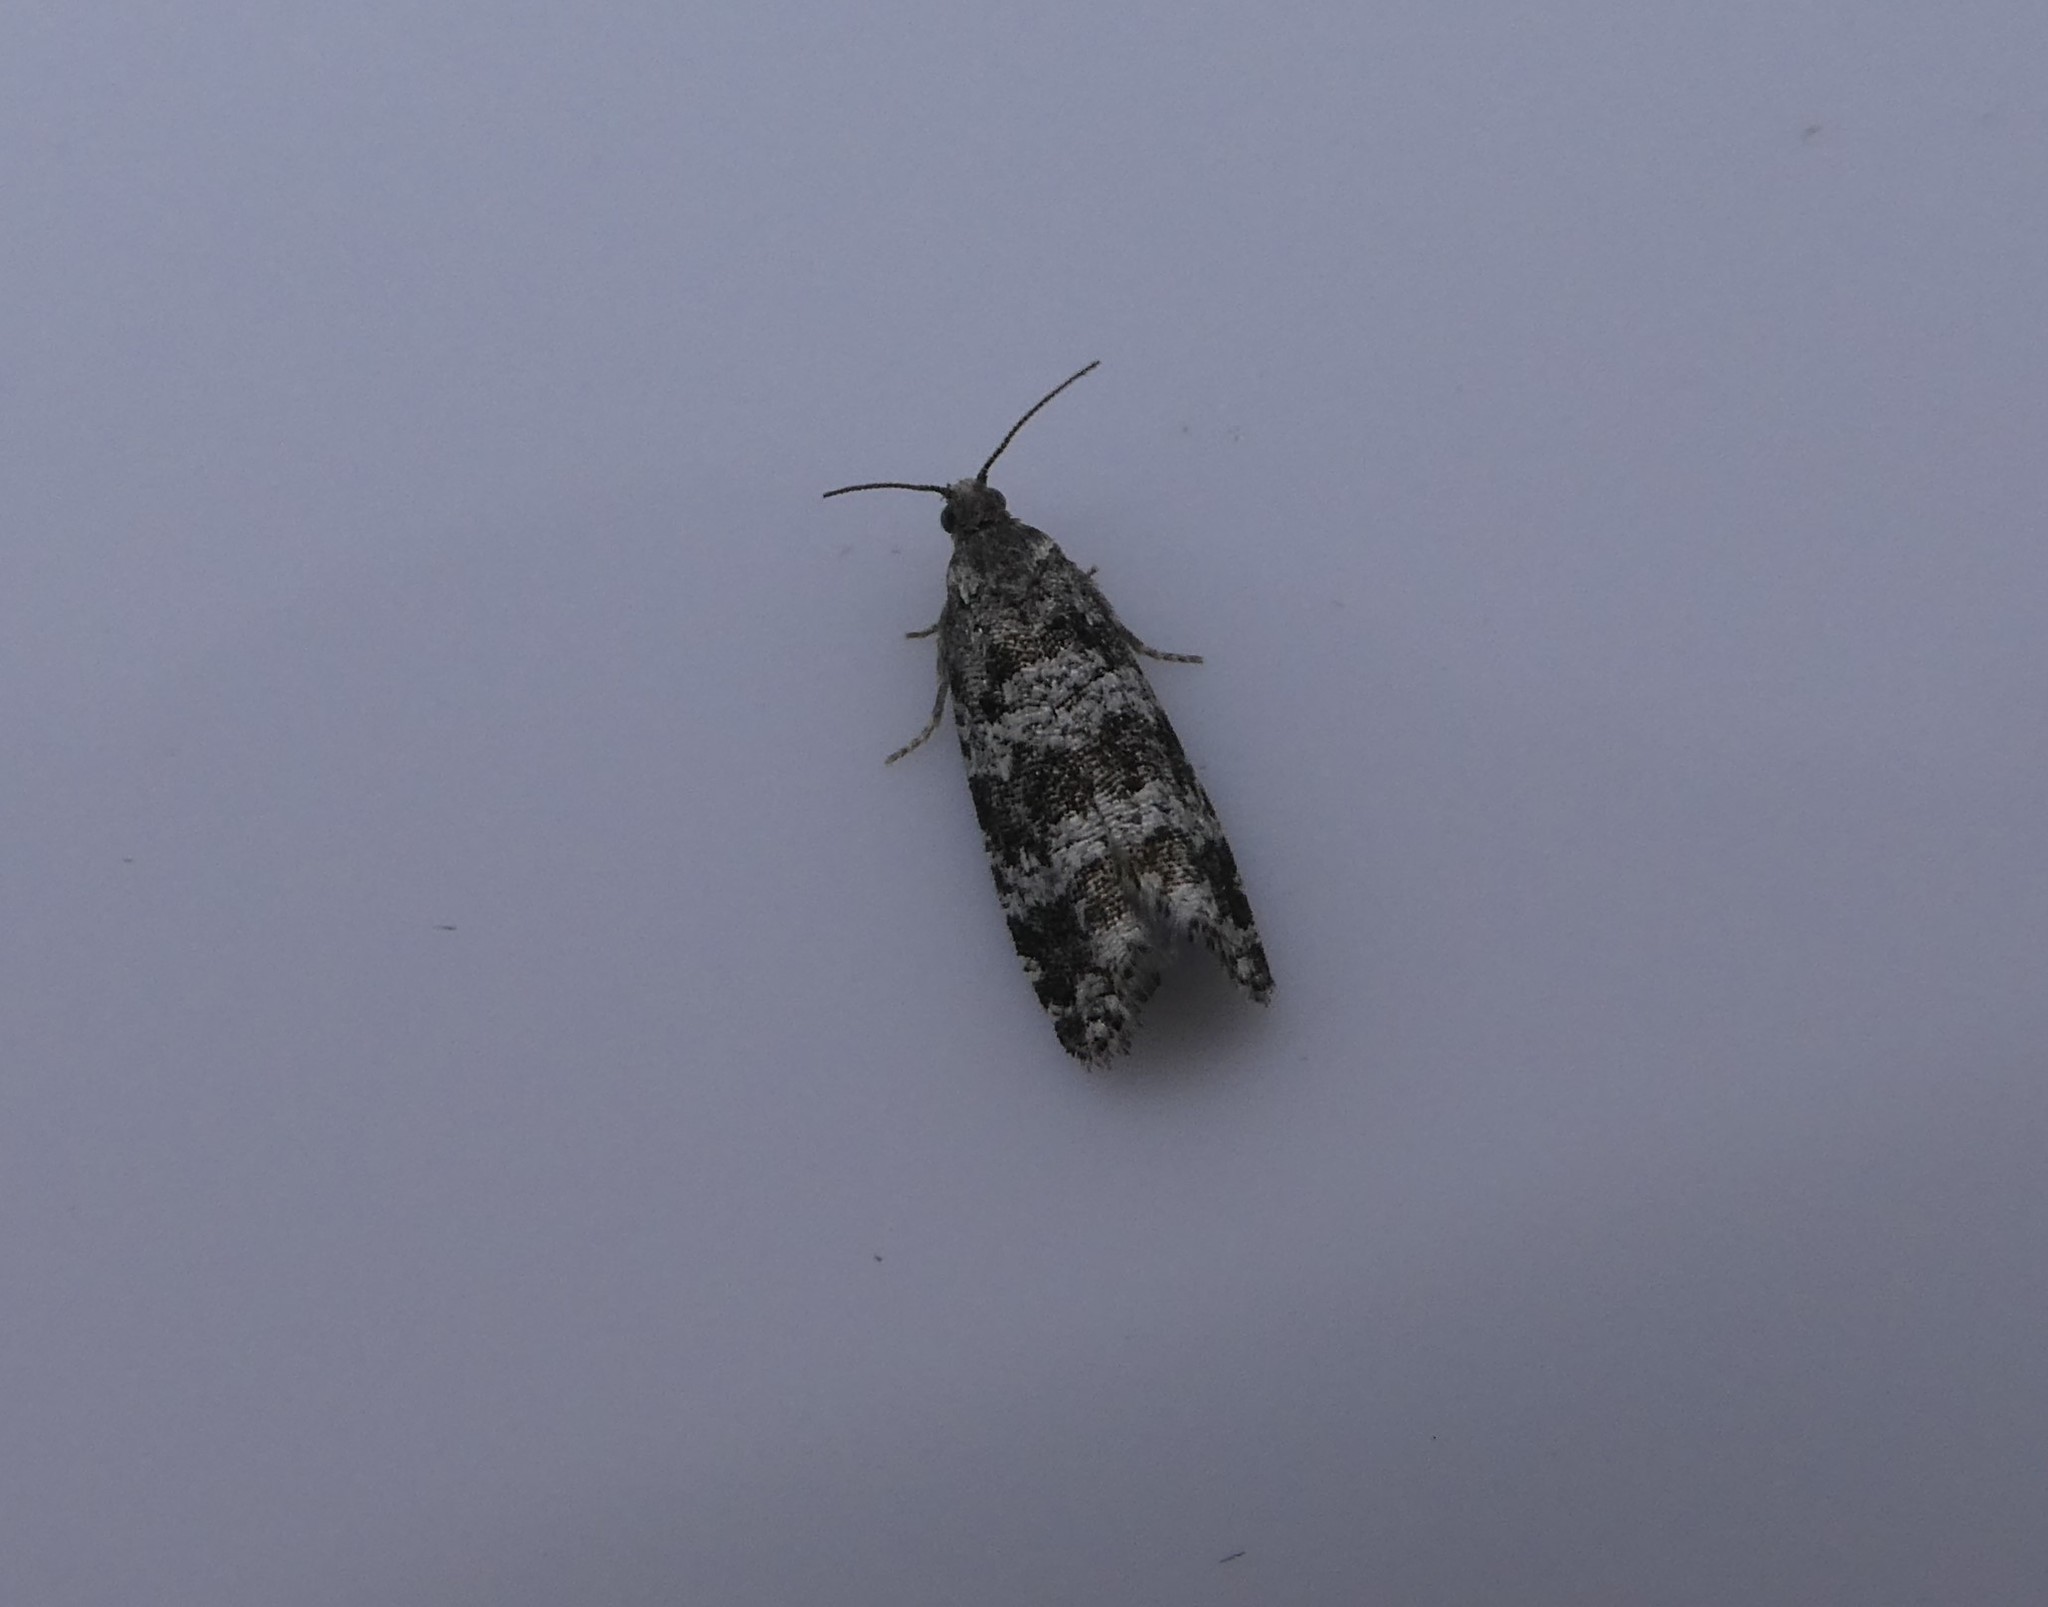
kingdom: Animalia
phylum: Arthropoda
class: Insecta
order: Lepidoptera
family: Tortricidae
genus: Taniva
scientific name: Taniva albolineana
